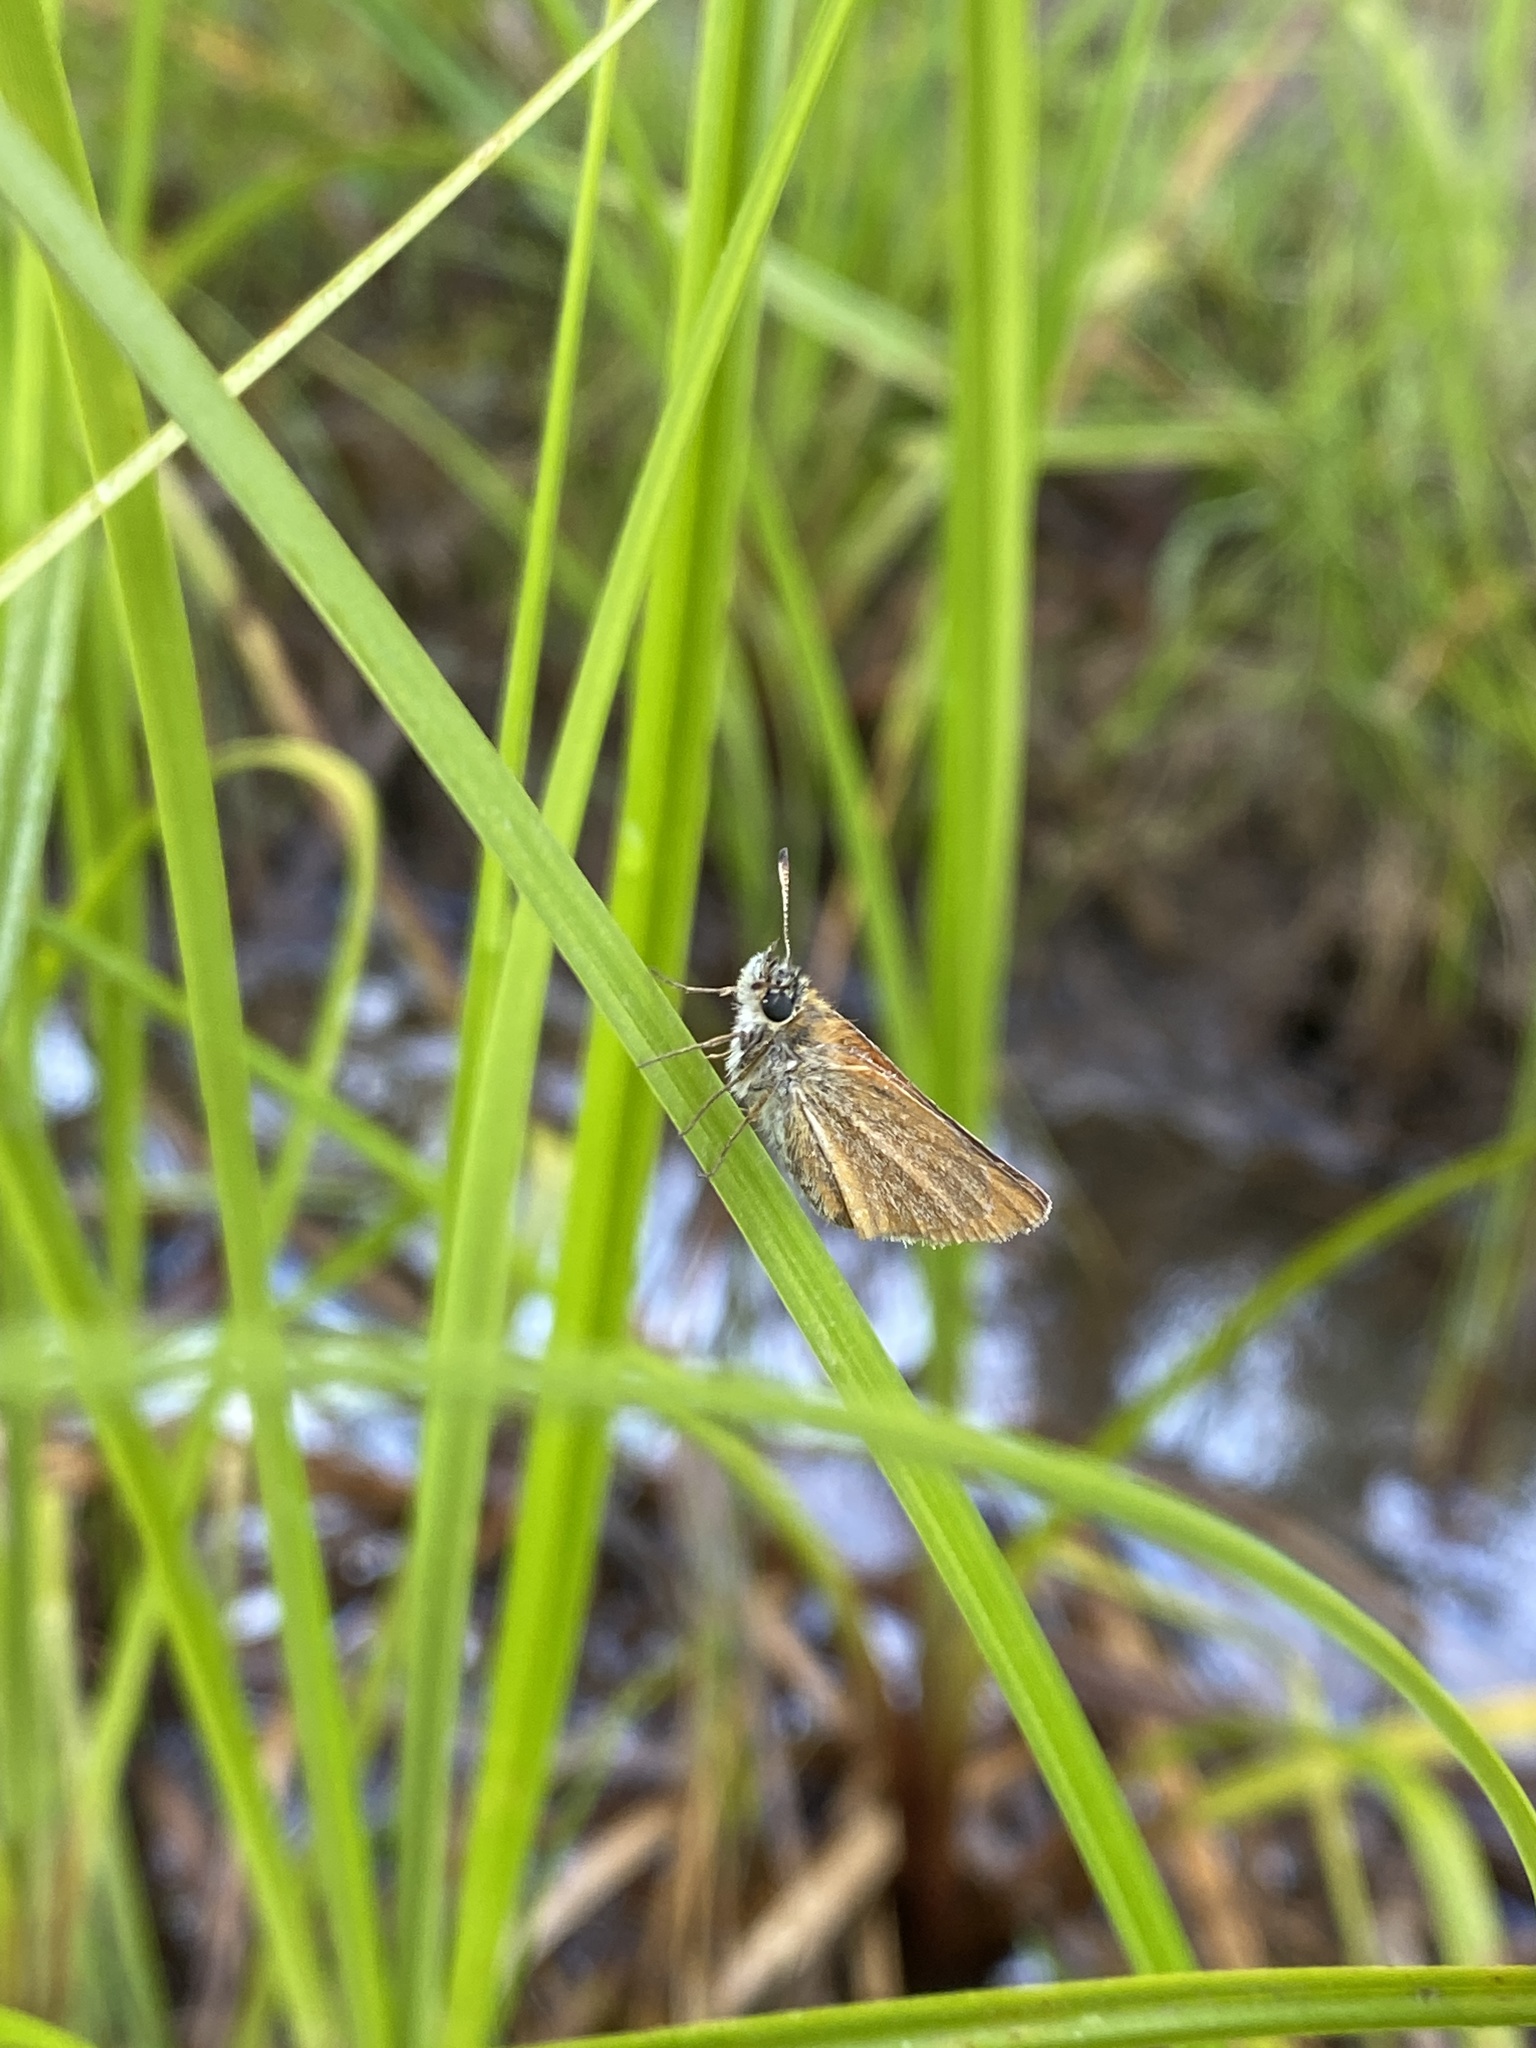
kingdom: Animalia
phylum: Arthropoda
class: Insecta
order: Lepidoptera
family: Hesperiidae
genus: Thymelicus
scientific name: Thymelicus lineola
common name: Essex skipper
